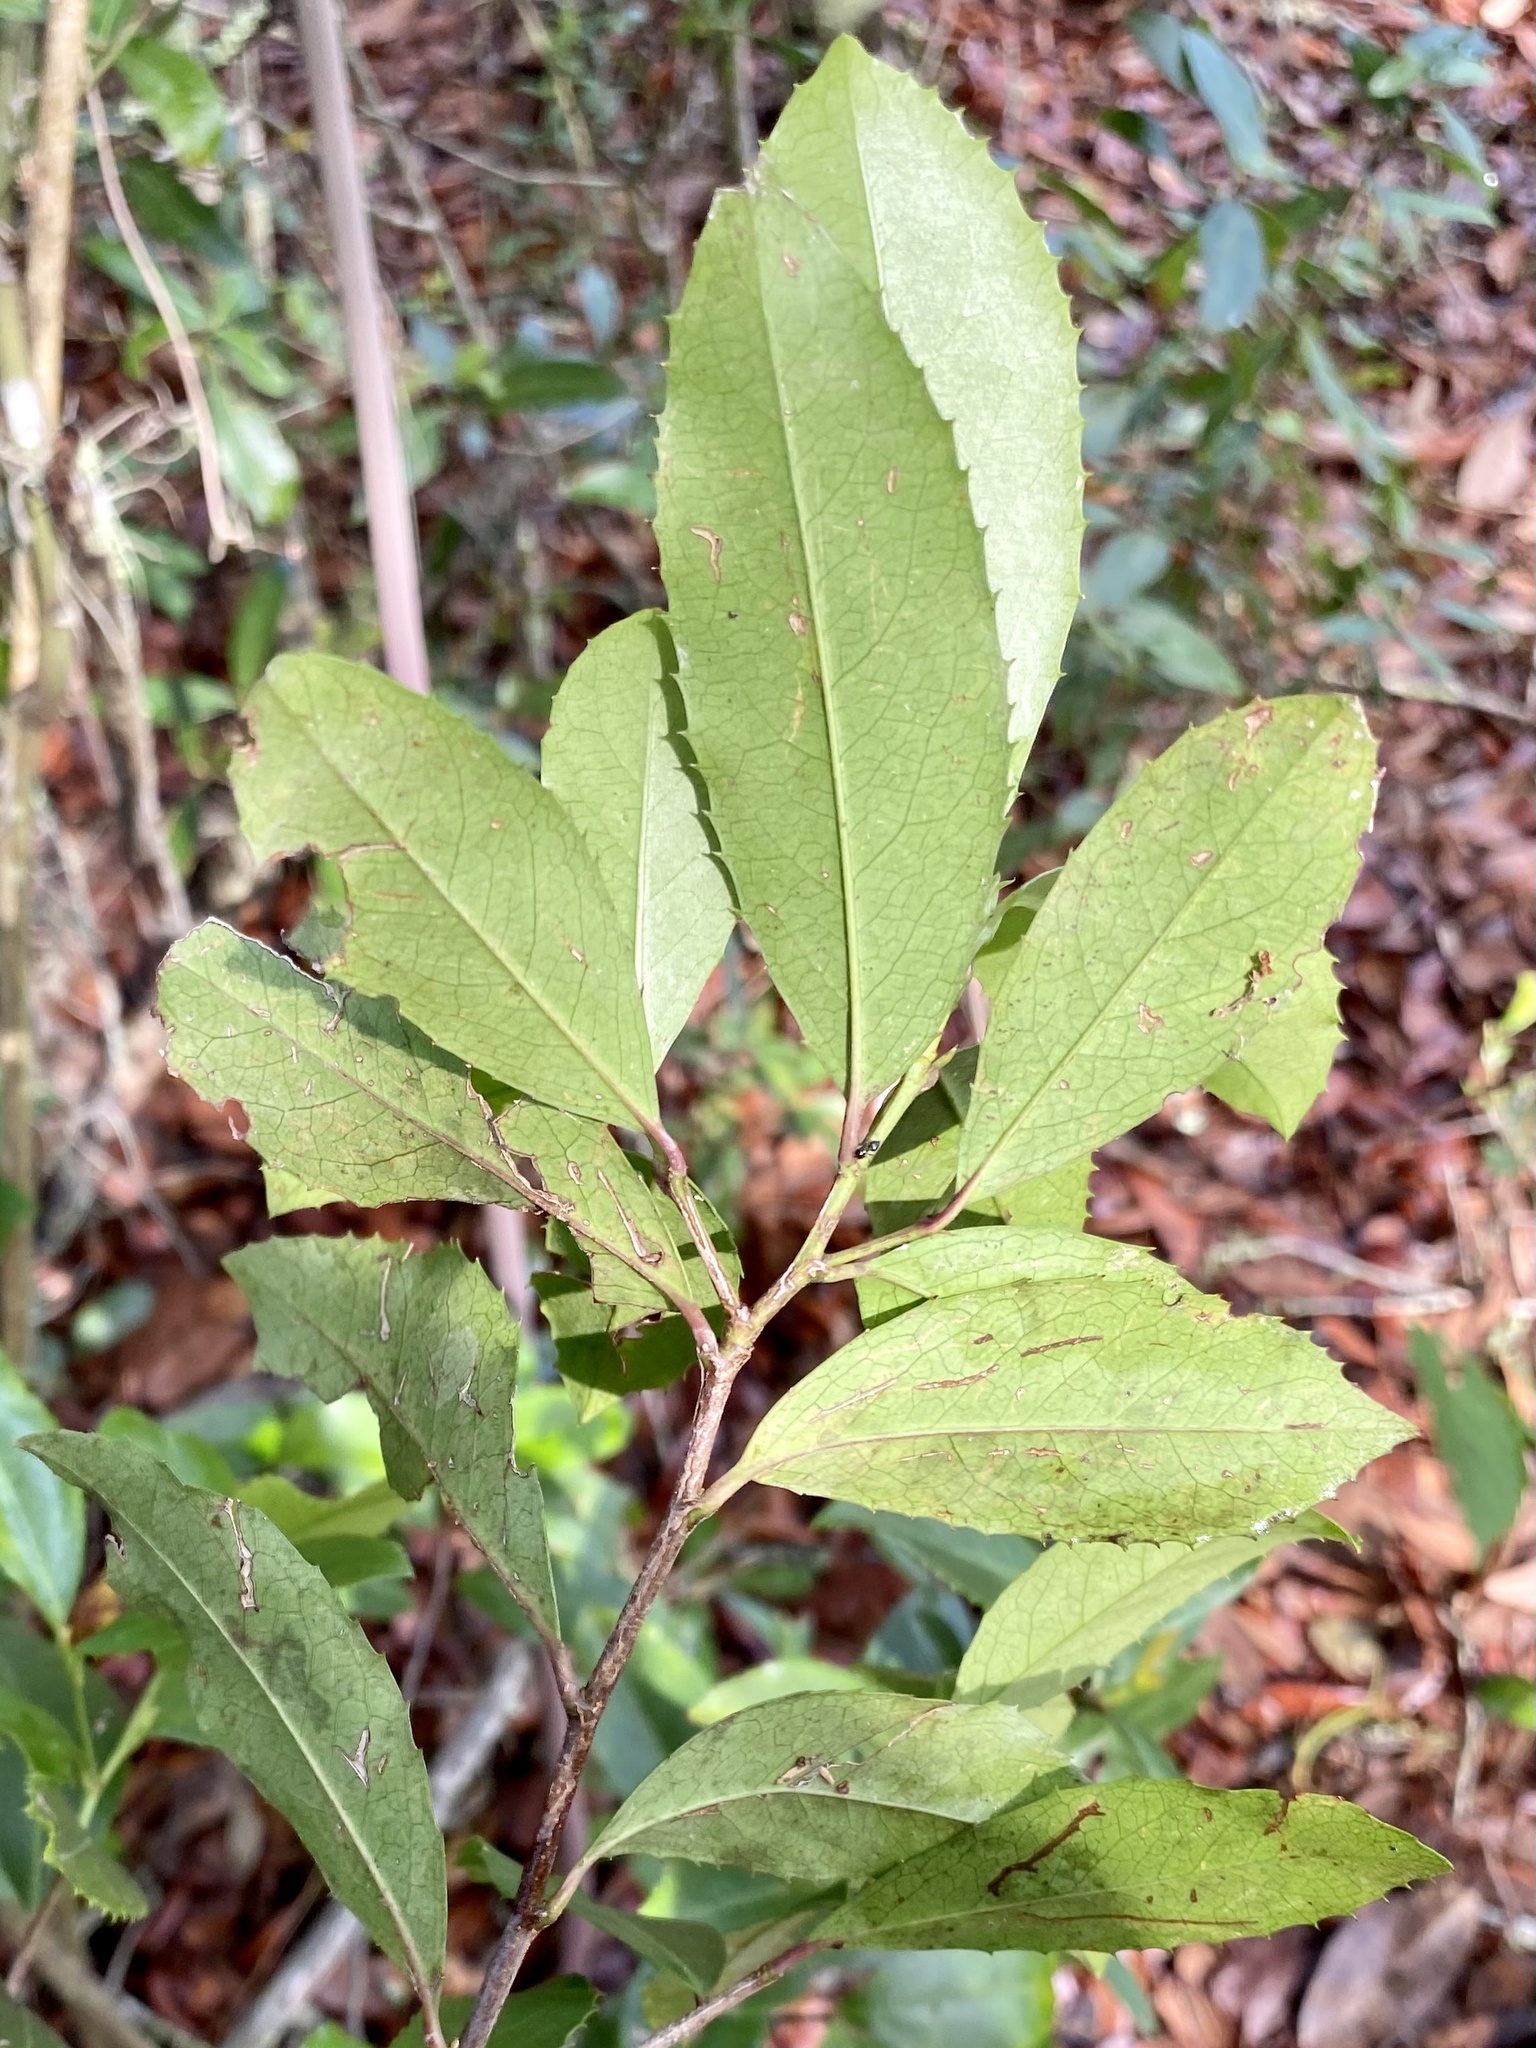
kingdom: Plantae
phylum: Tracheophyta
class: Magnoliopsida
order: Rosales
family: Rosaceae
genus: Prunus
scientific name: Prunus caroliniana
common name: Carolina laurel cherry
